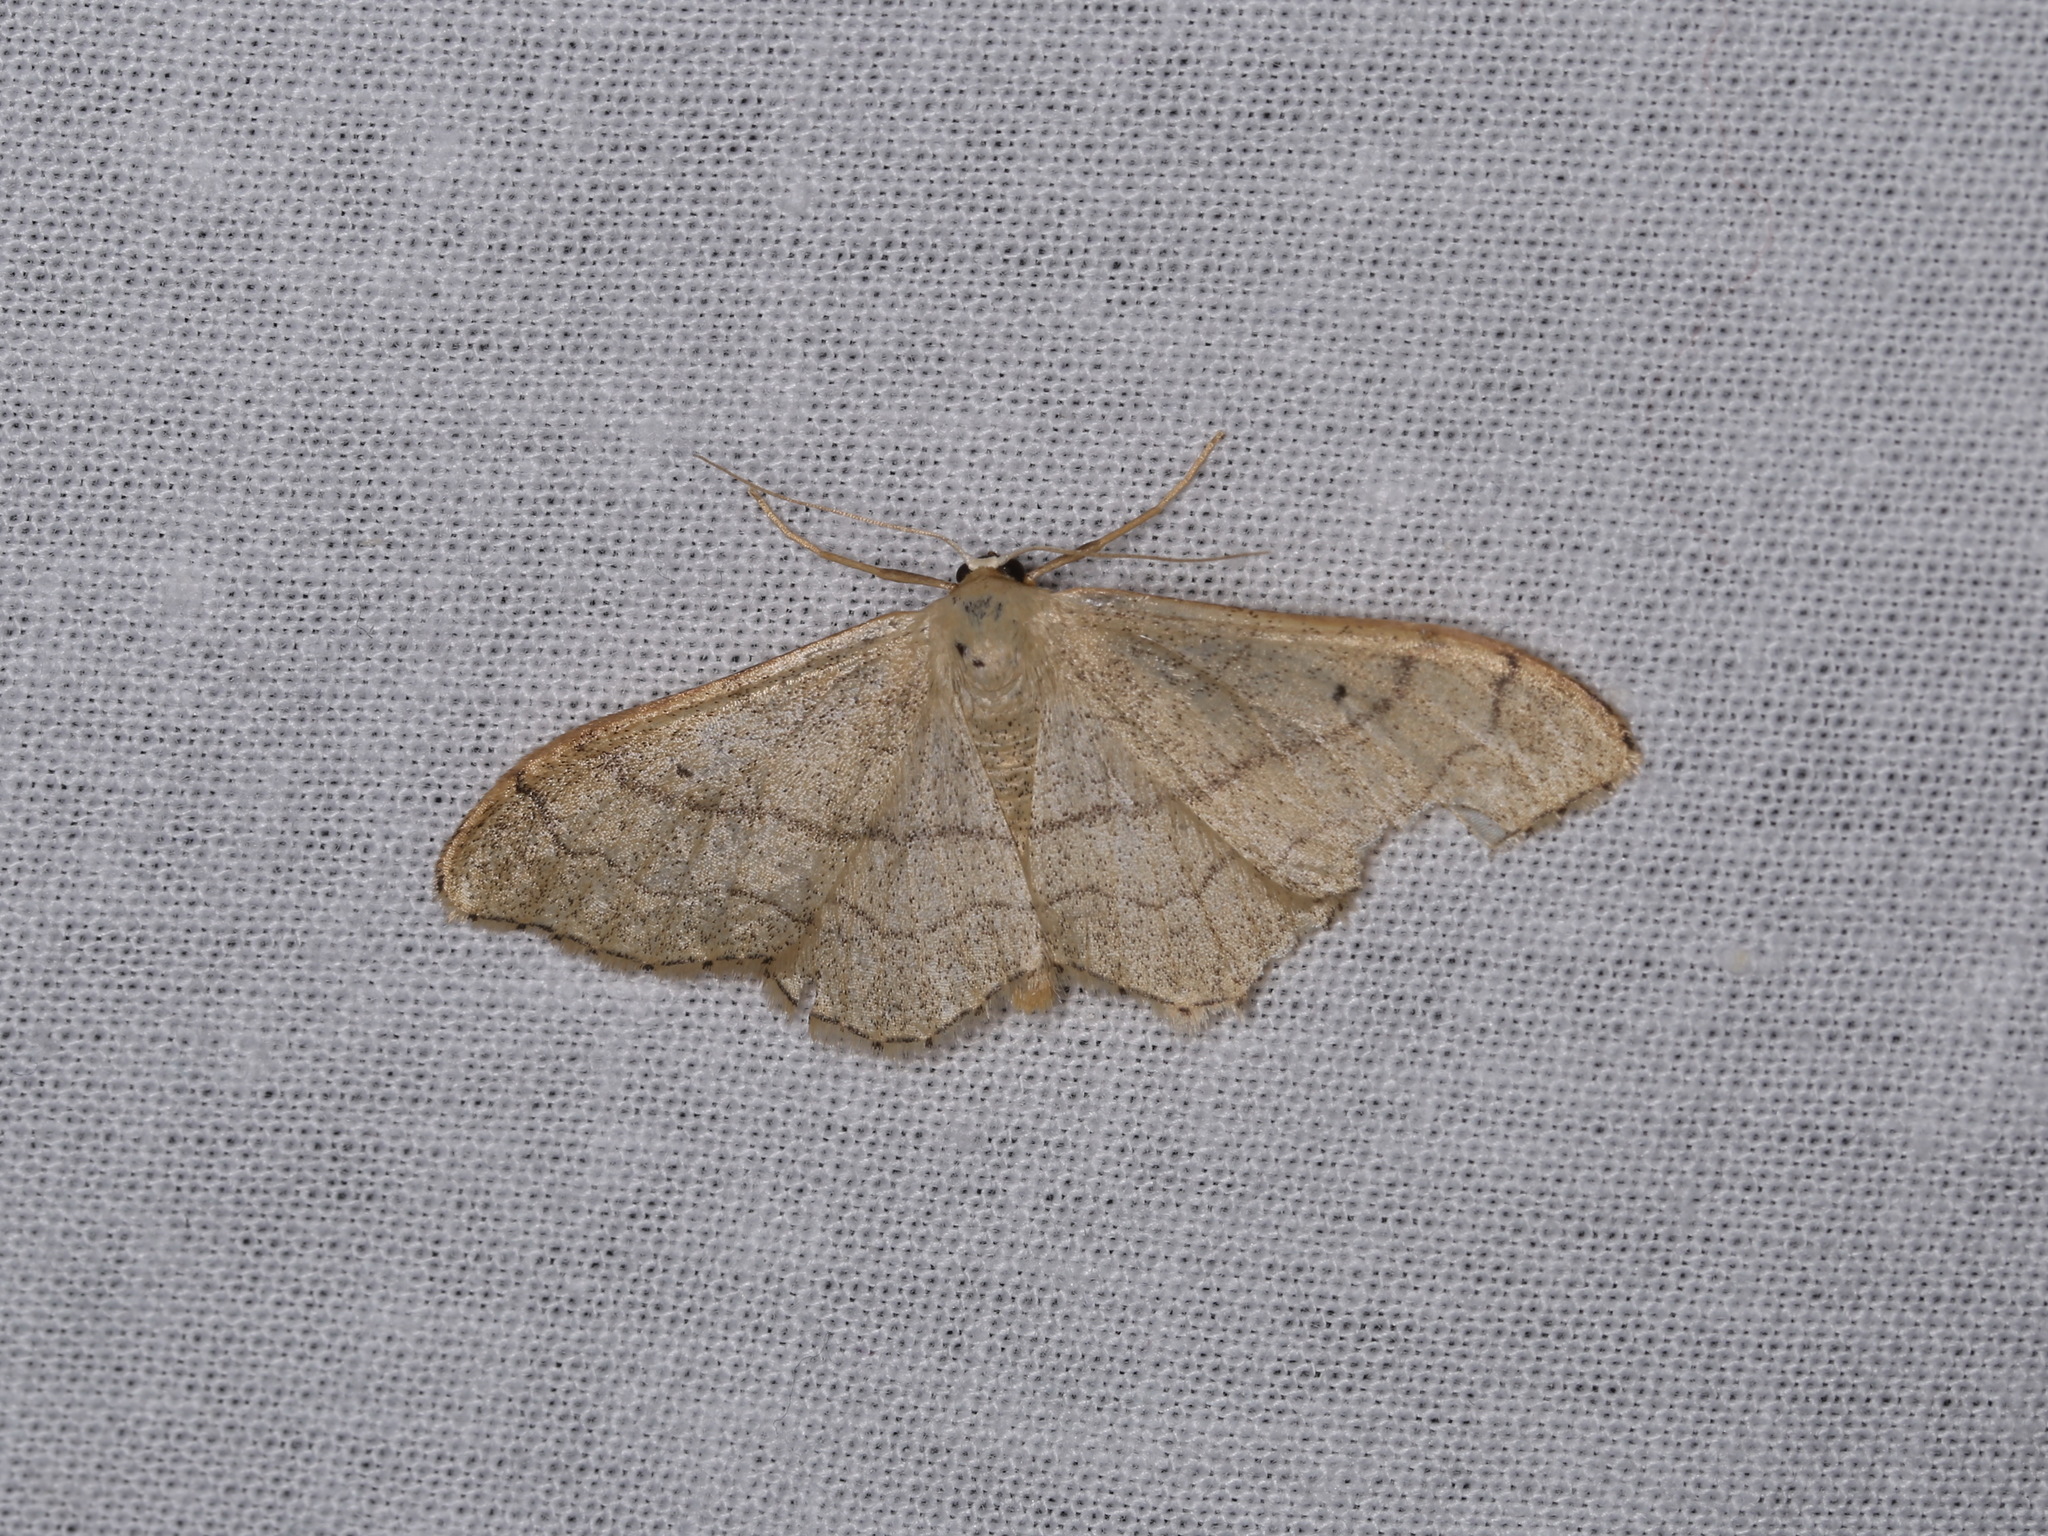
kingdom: Animalia
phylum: Arthropoda
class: Insecta
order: Lepidoptera
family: Geometridae
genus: Idaea
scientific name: Idaea aversata
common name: Riband wave
